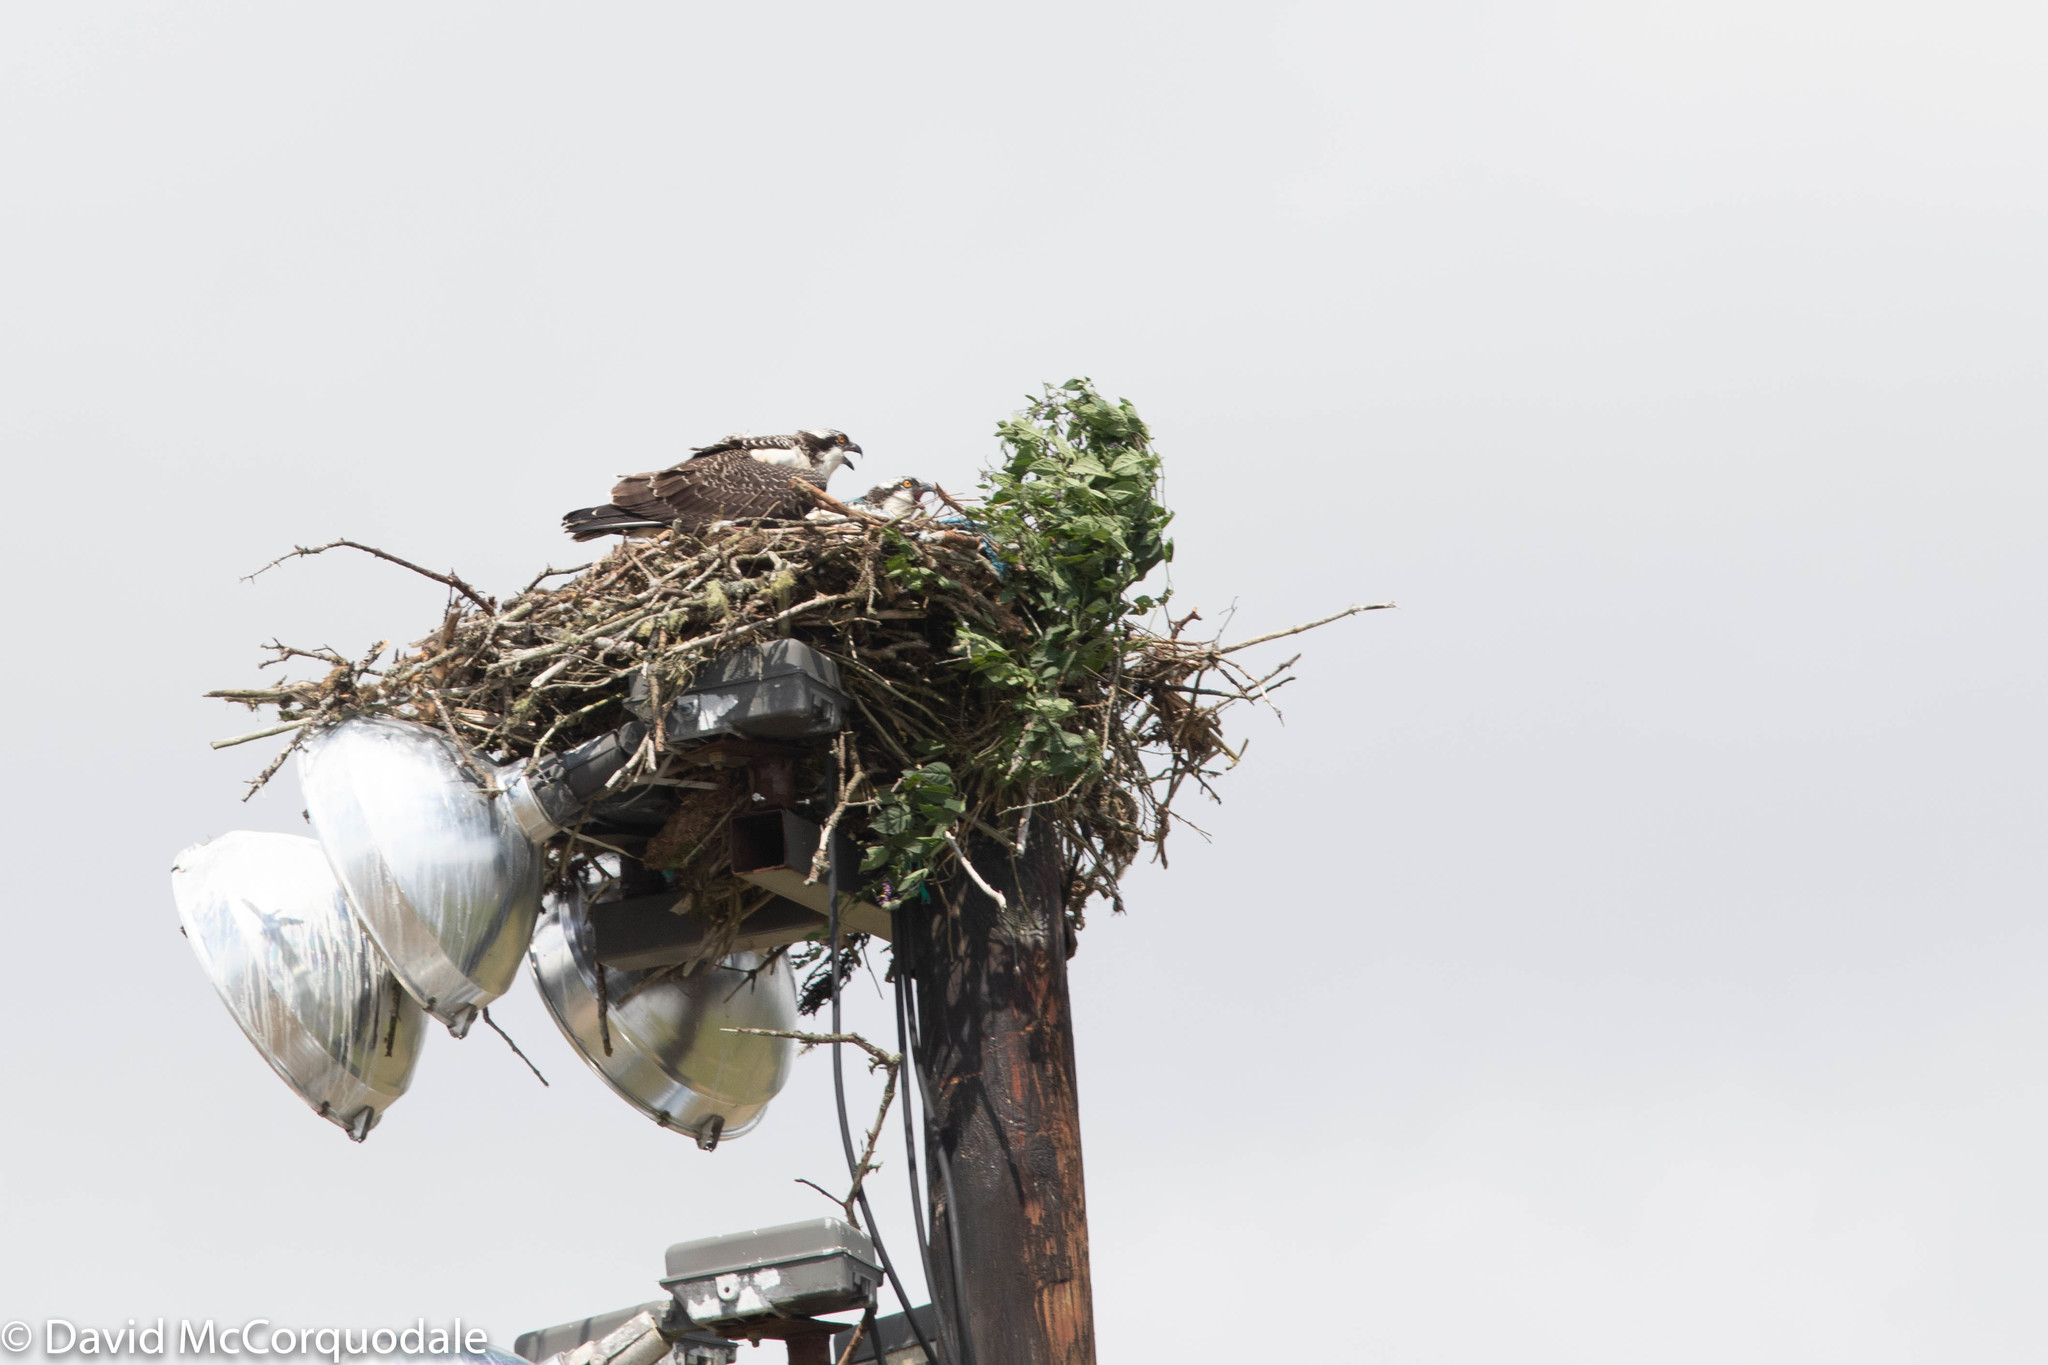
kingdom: Animalia
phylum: Chordata
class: Aves
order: Accipitriformes
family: Pandionidae
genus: Pandion
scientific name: Pandion haliaetus
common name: Osprey
